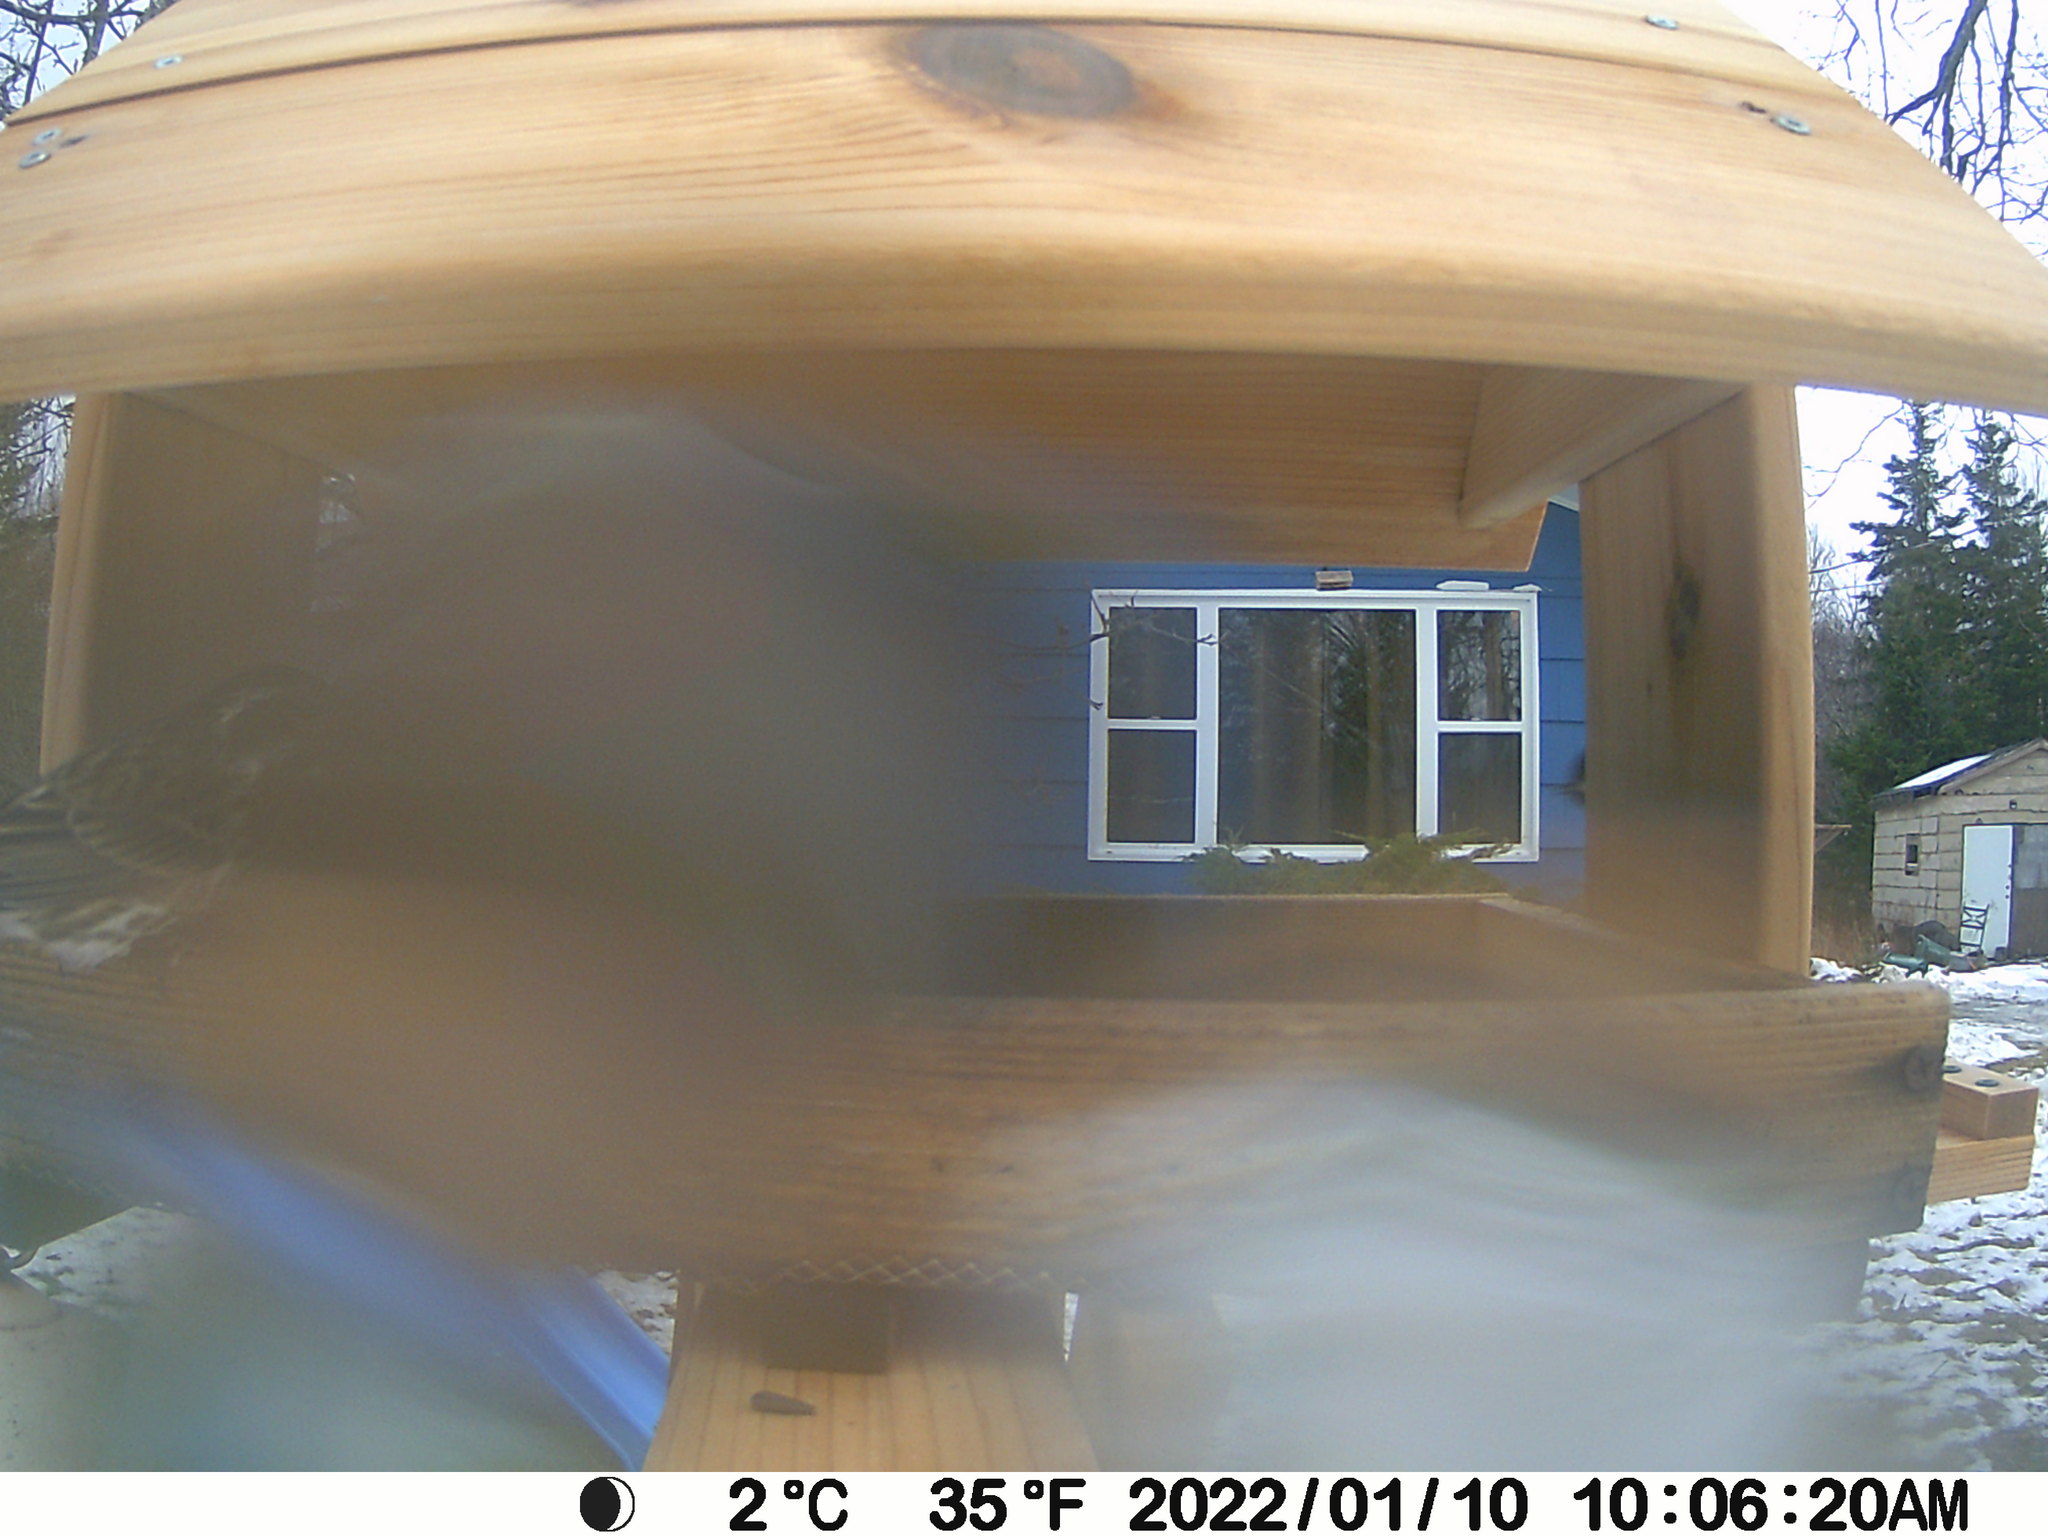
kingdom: Animalia
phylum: Chordata
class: Aves
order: Passeriformes
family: Fringillidae
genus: Haemorhous
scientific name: Haemorhous purpureus
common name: Purple finch
